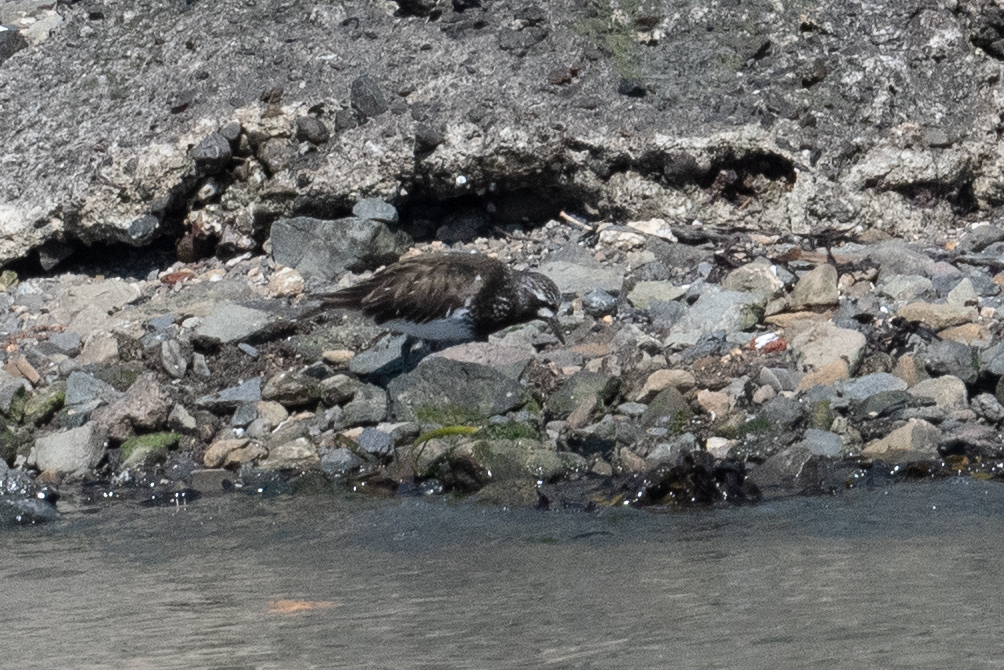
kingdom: Animalia
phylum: Chordata
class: Aves
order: Charadriiformes
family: Scolopacidae
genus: Arenaria
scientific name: Arenaria melanocephala
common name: Black turnstone
